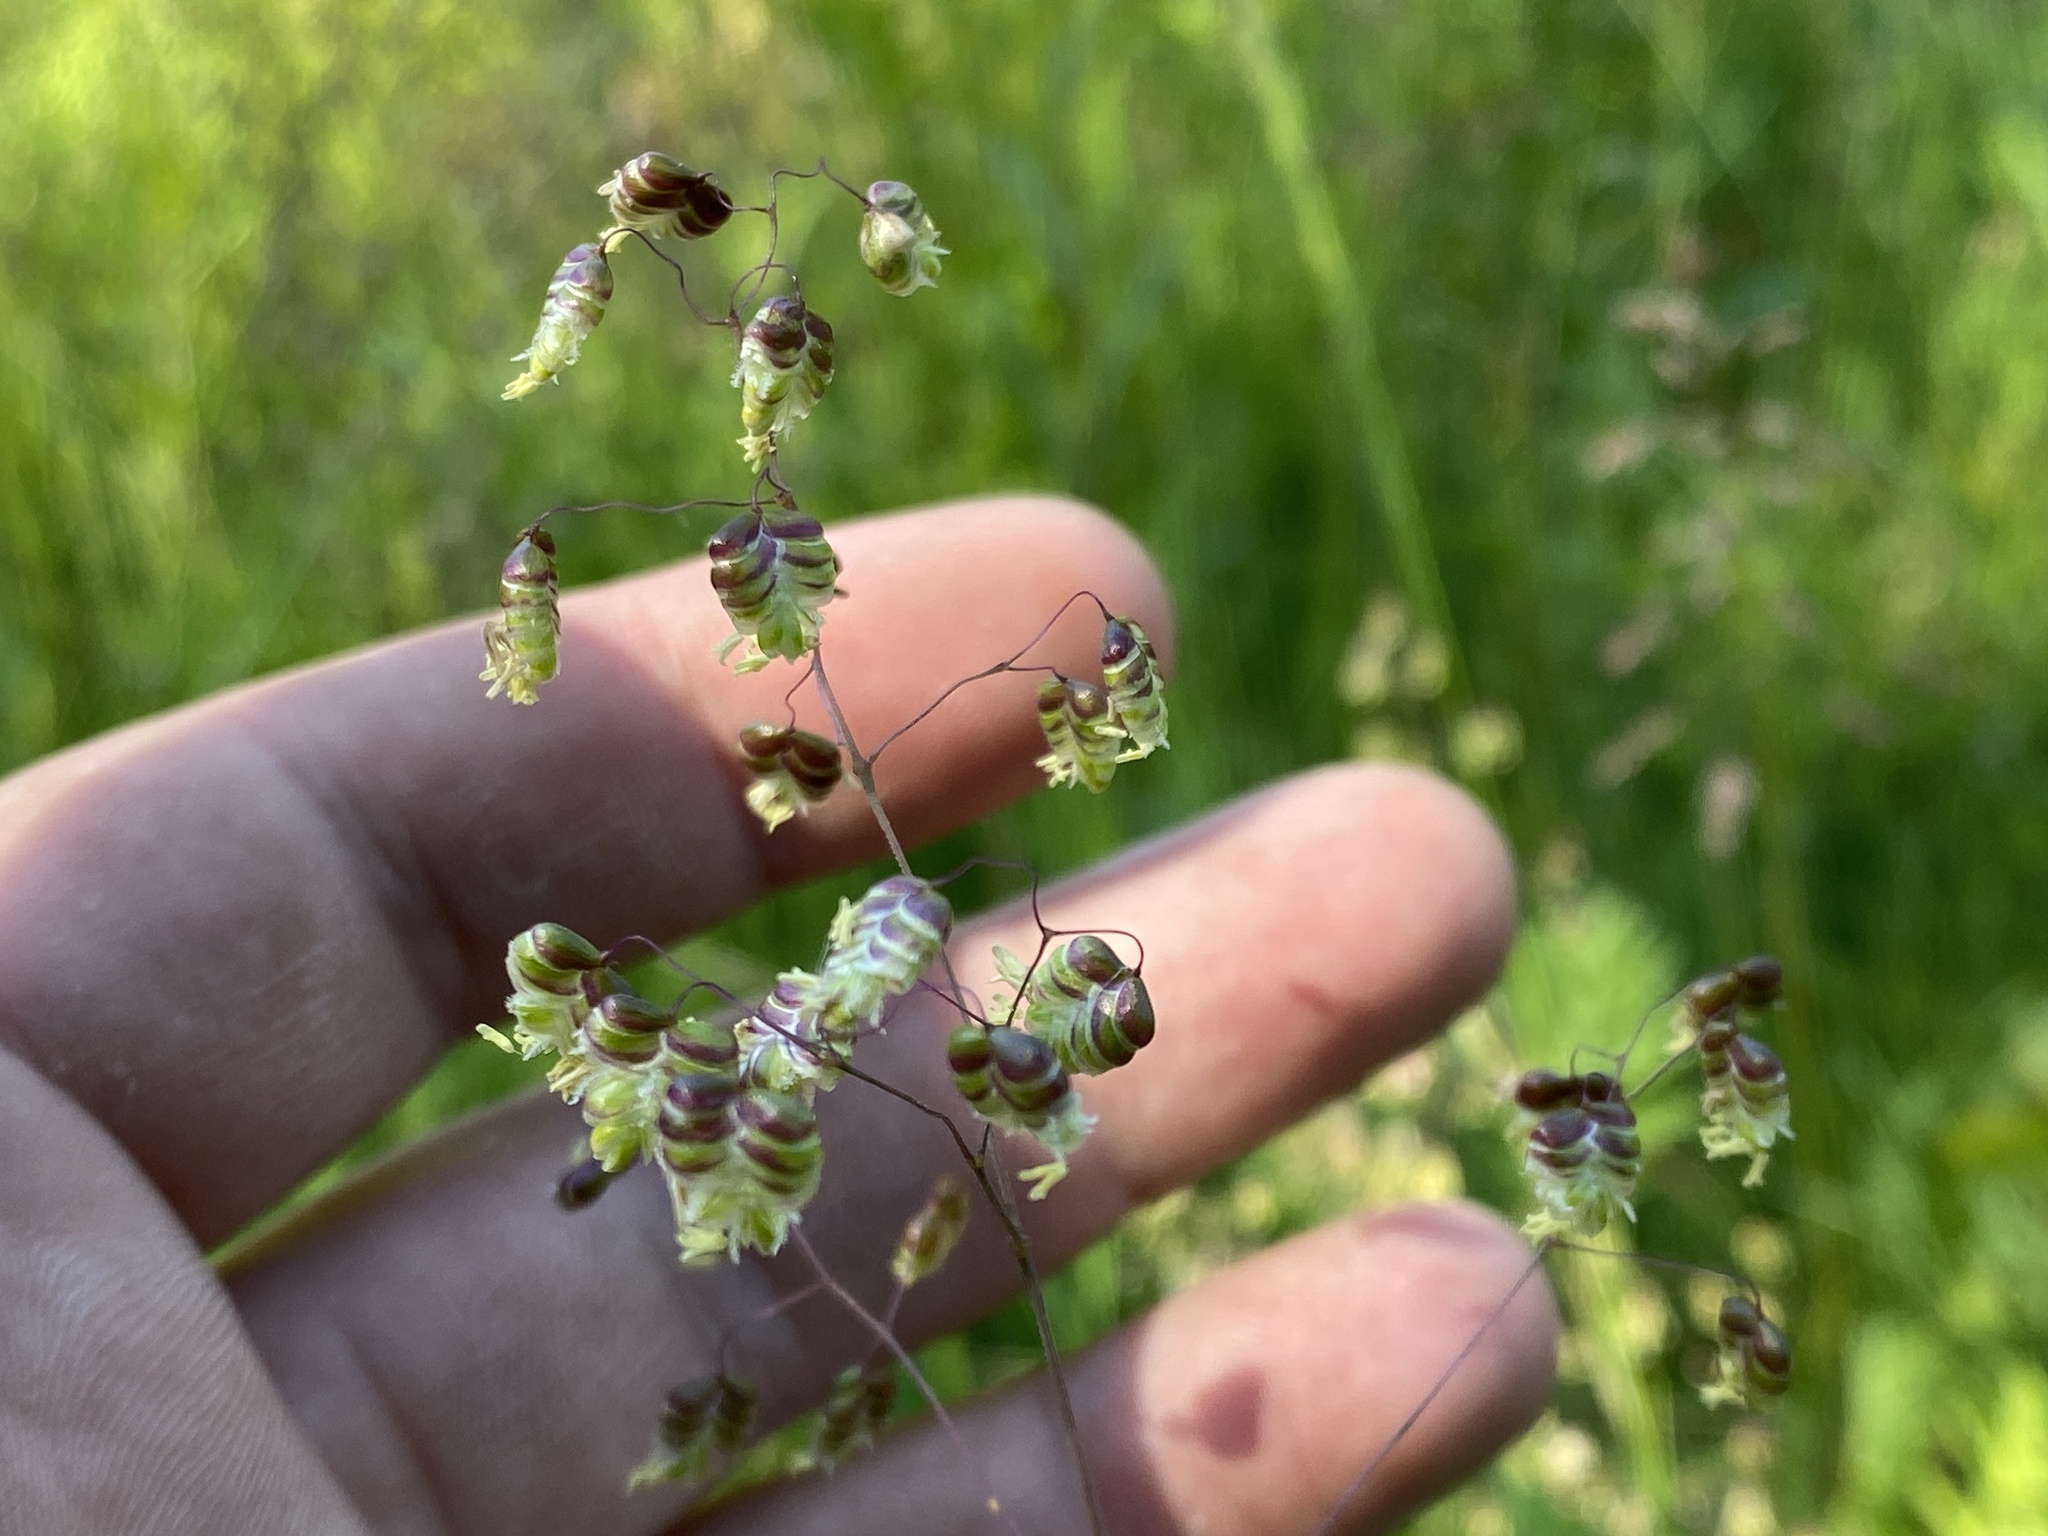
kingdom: Plantae
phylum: Tracheophyta
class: Liliopsida
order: Poales
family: Poaceae
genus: Briza
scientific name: Briza media
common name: Quaking grass
